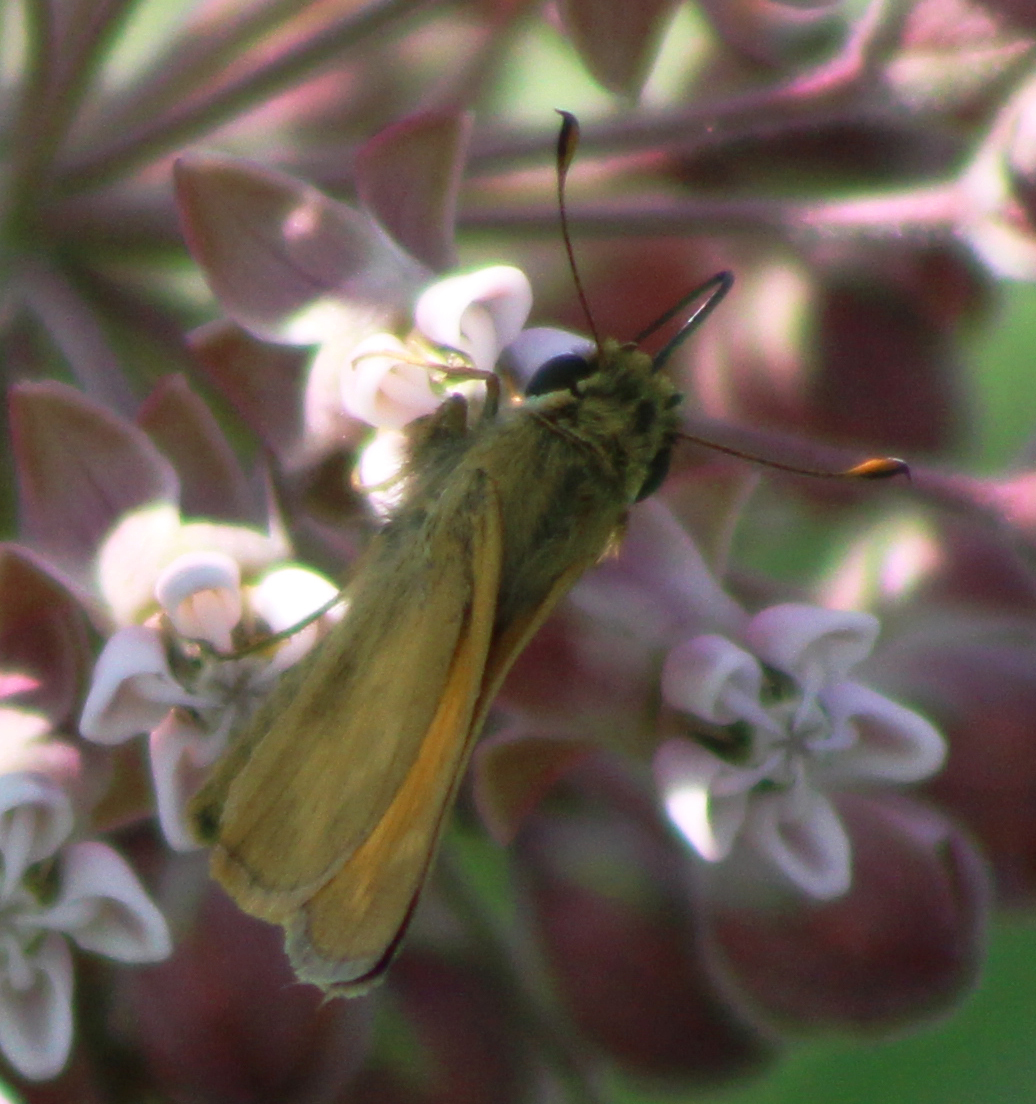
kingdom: Animalia
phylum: Arthropoda
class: Insecta
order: Lepidoptera
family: Hesperiidae
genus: Atalopedes
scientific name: Atalopedes
